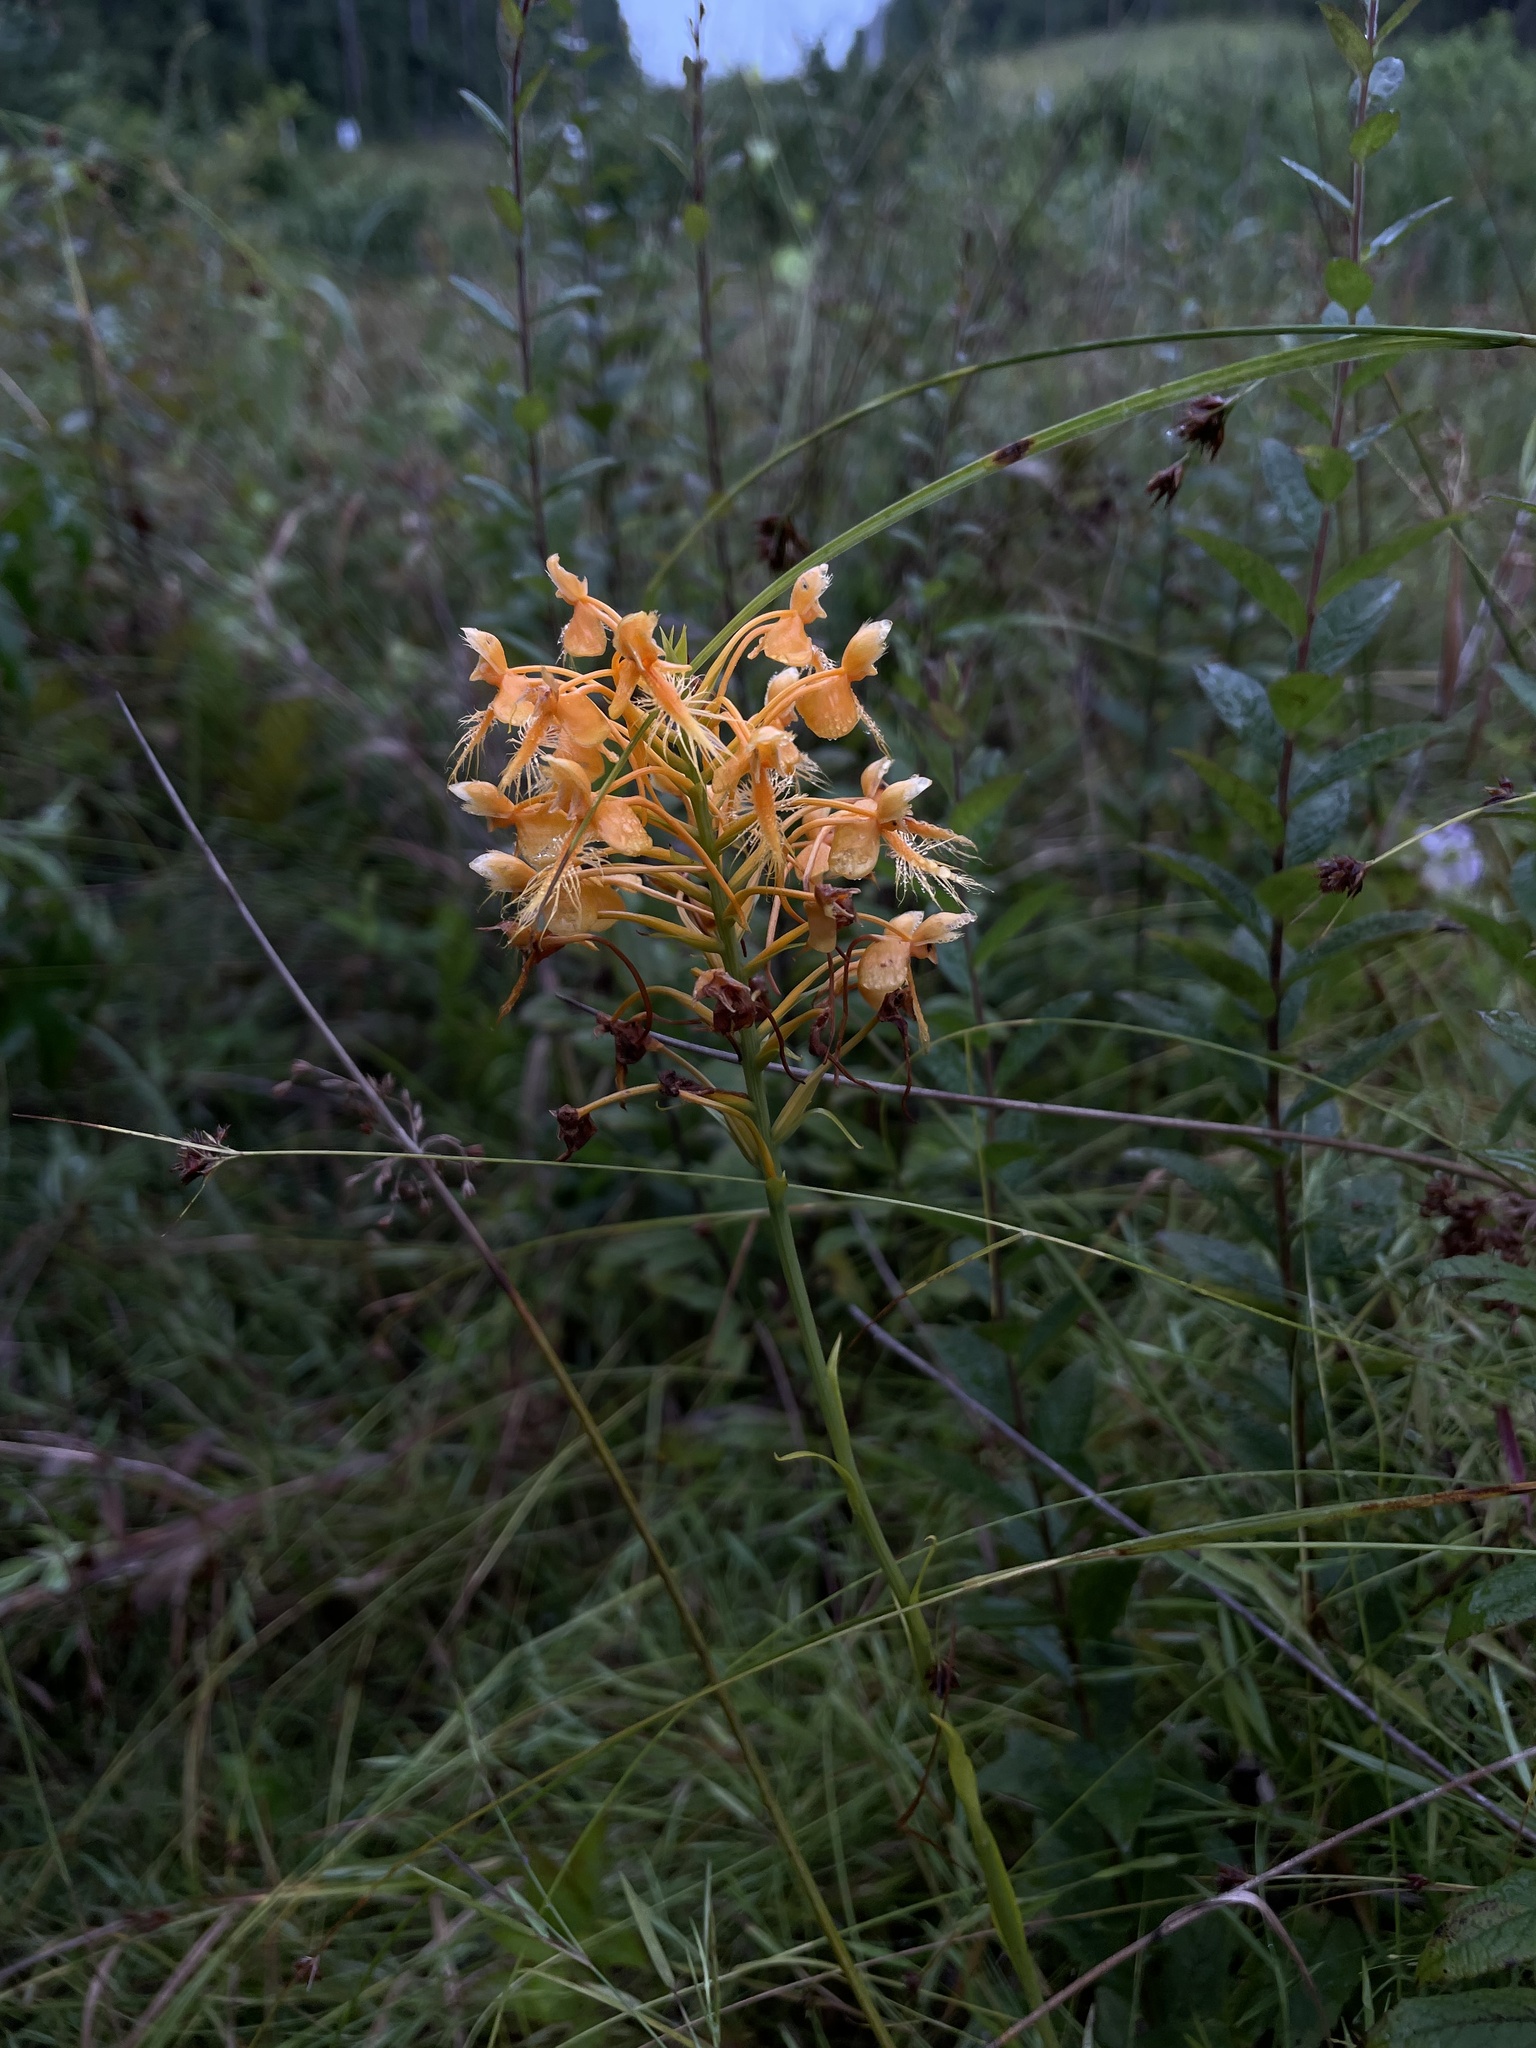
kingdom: Plantae
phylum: Tracheophyta
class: Liliopsida
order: Asparagales
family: Orchidaceae
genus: Platanthera
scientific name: Platanthera ciliaris
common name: Yellow fringed orchid
